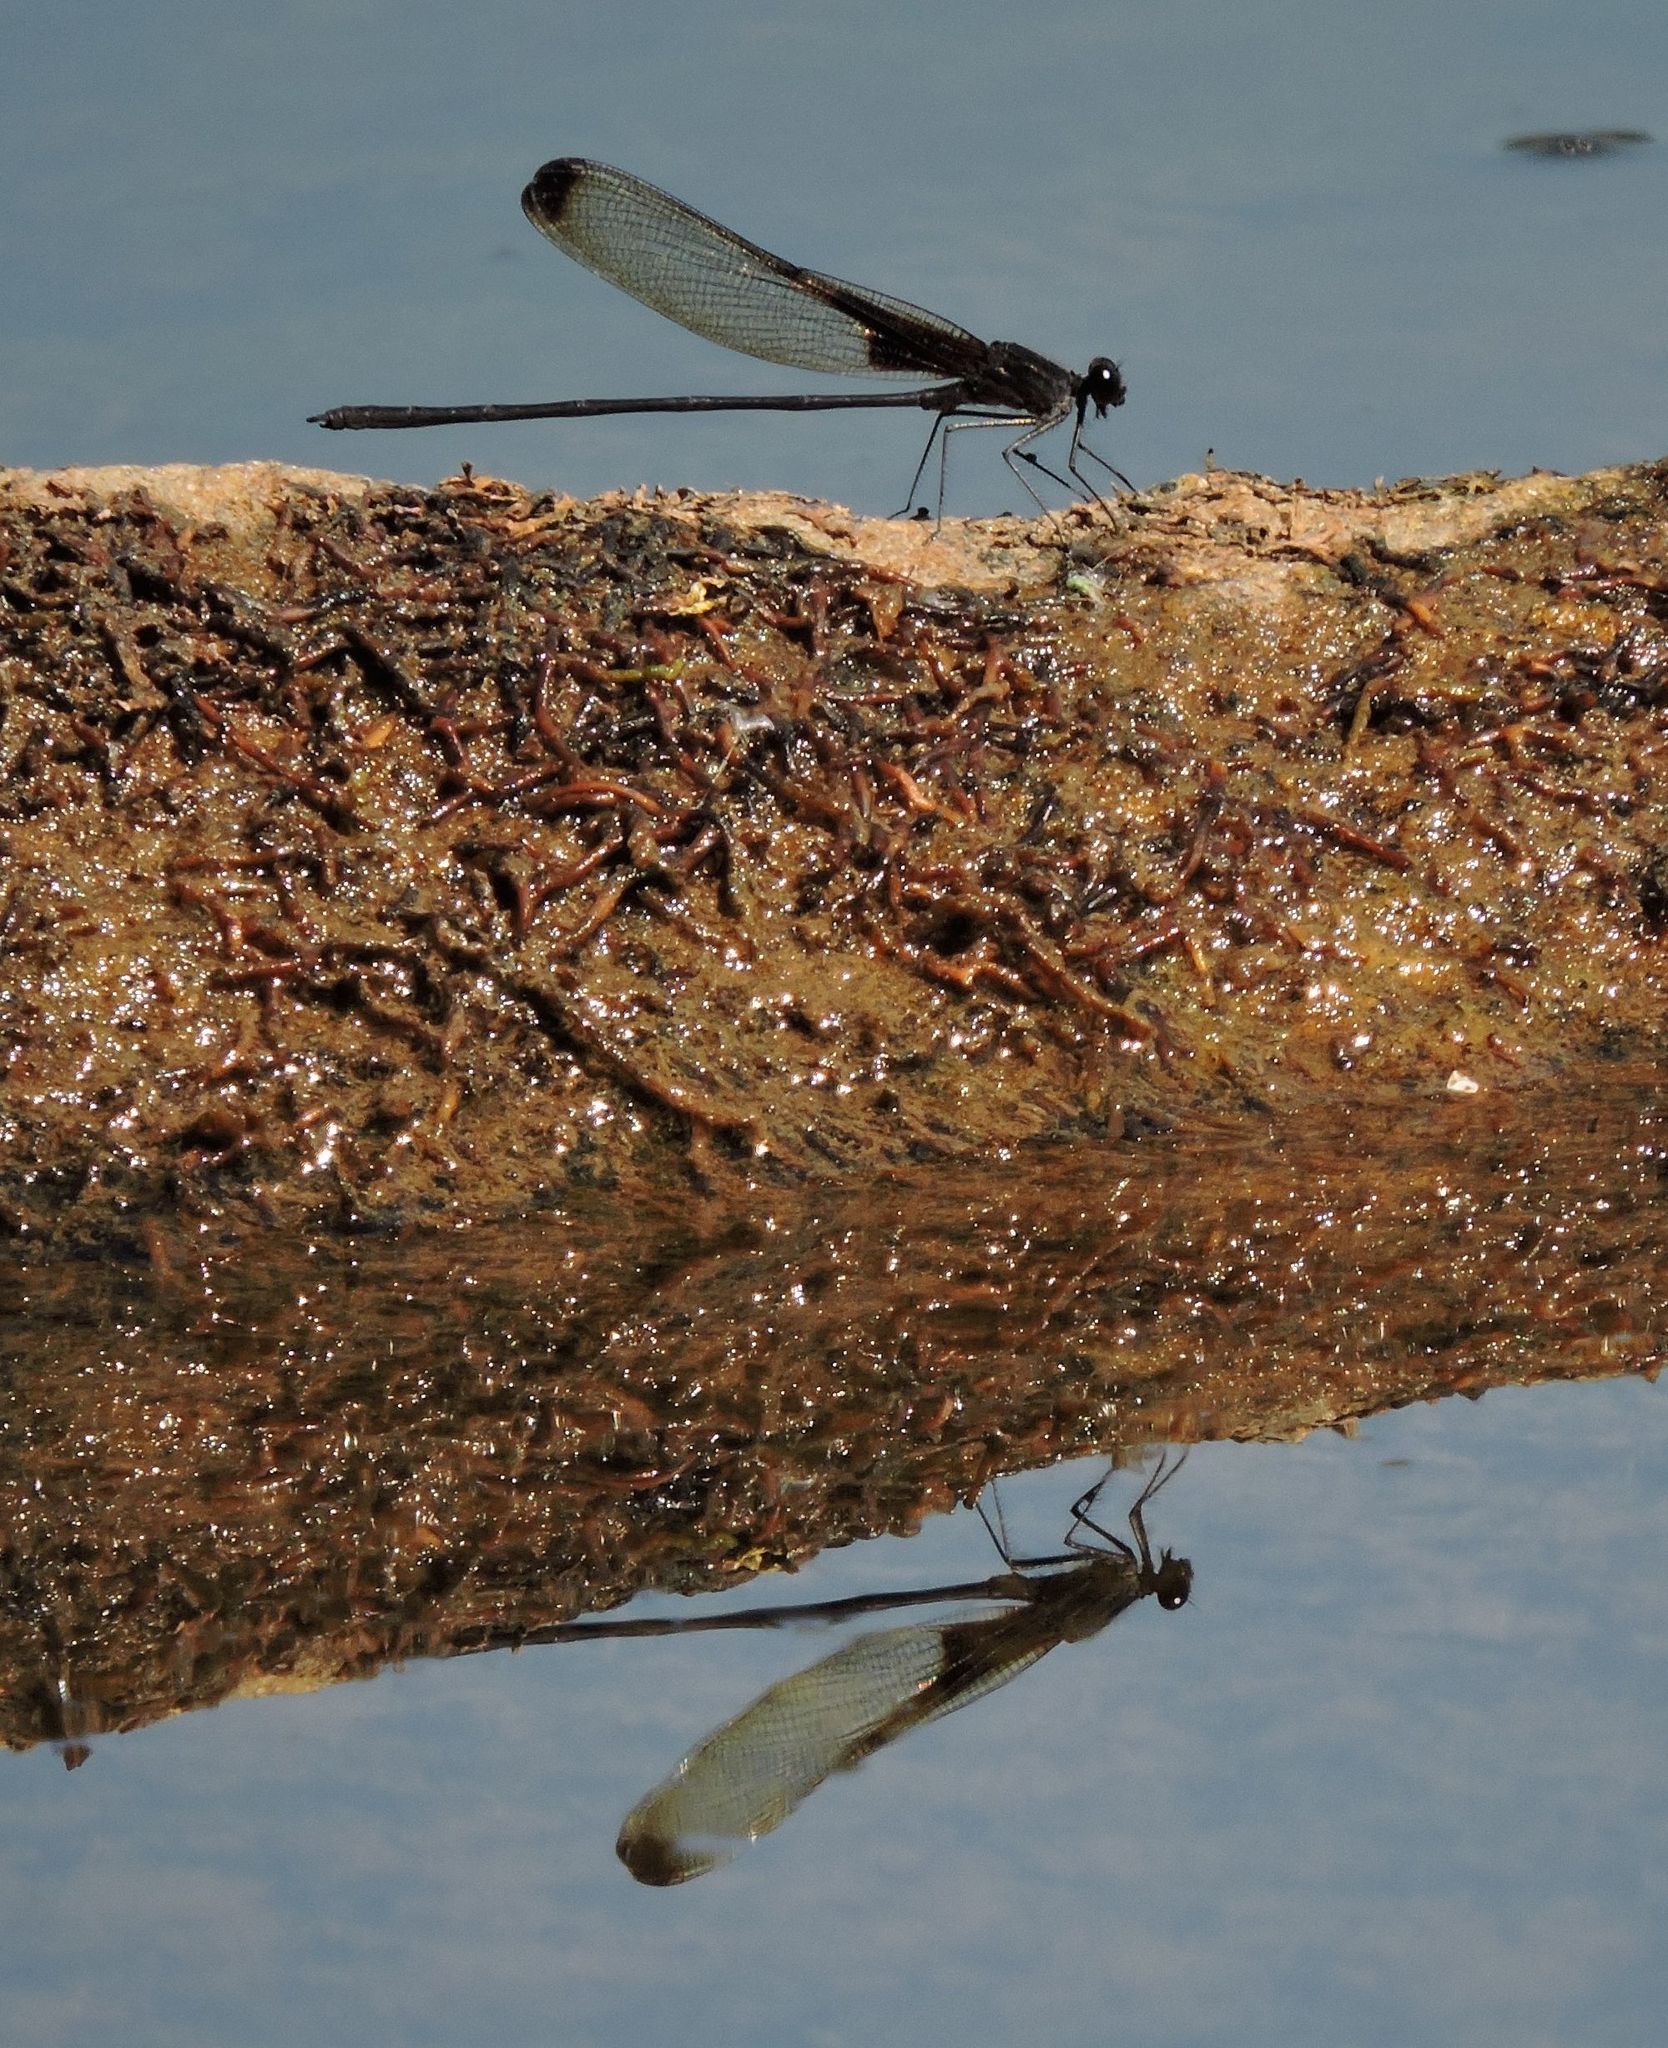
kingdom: Animalia
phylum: Arthropoda
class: Insecta
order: Odonata
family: Calopterygidae
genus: Hetaerina
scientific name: Hetaerina titia
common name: Smoky rubyspot
